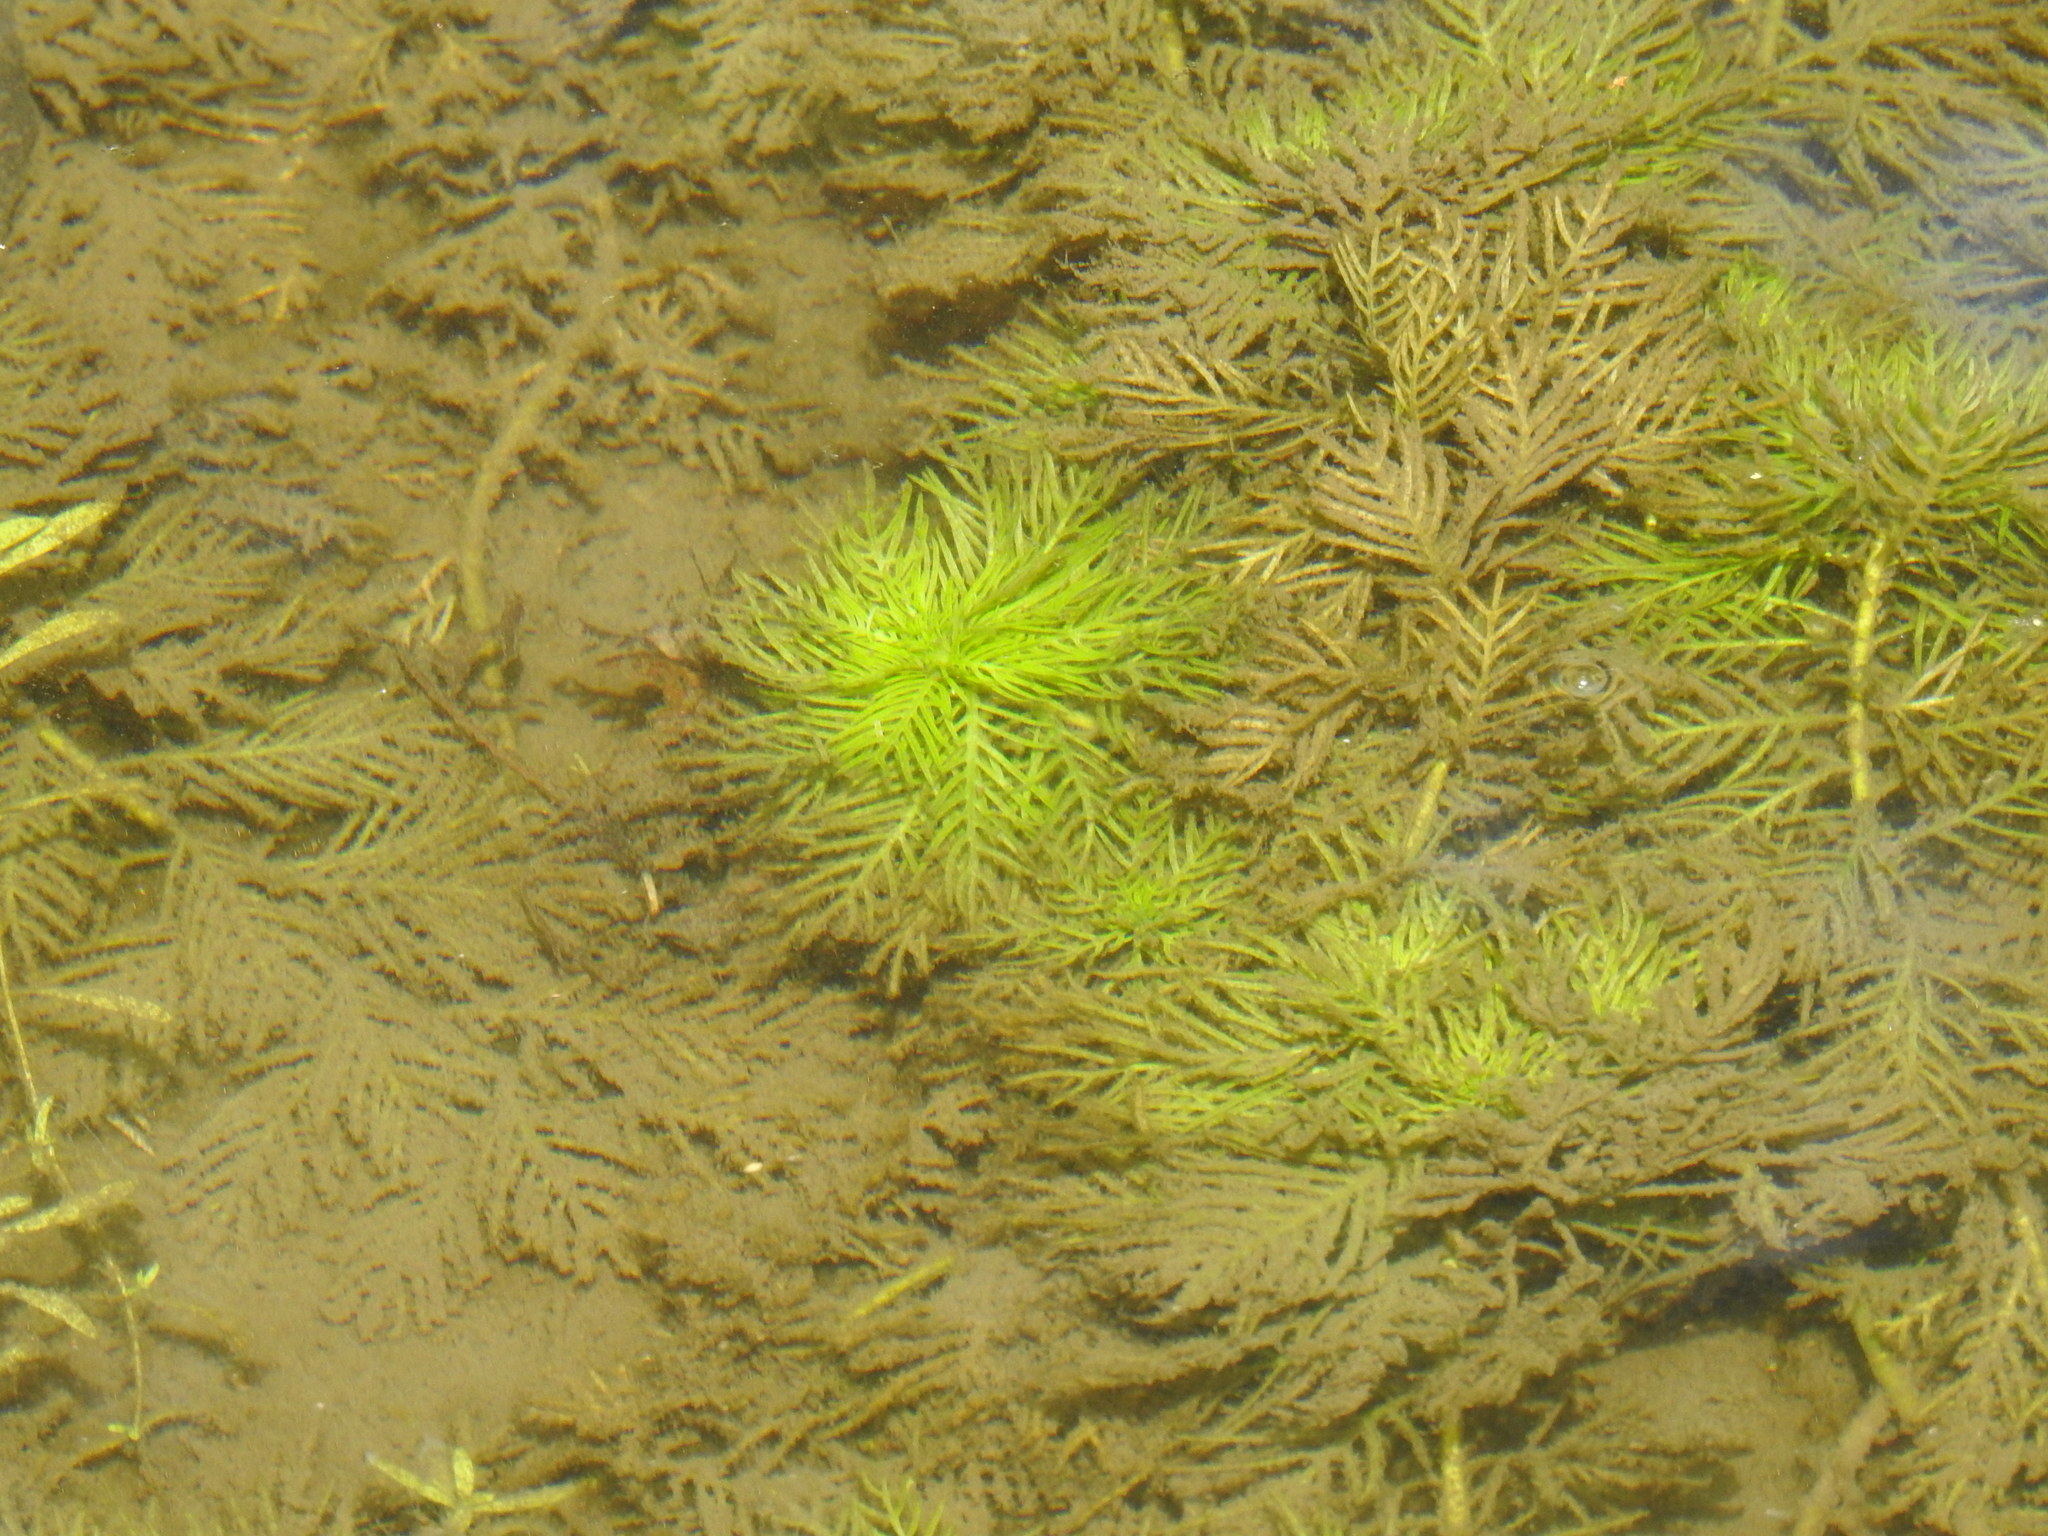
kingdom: Plantae
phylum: Tracheophyta
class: Magnoliopsida
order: Ericales
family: Primulaceae
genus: Hottonia
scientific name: Hottonia palustris
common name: Water-violet
